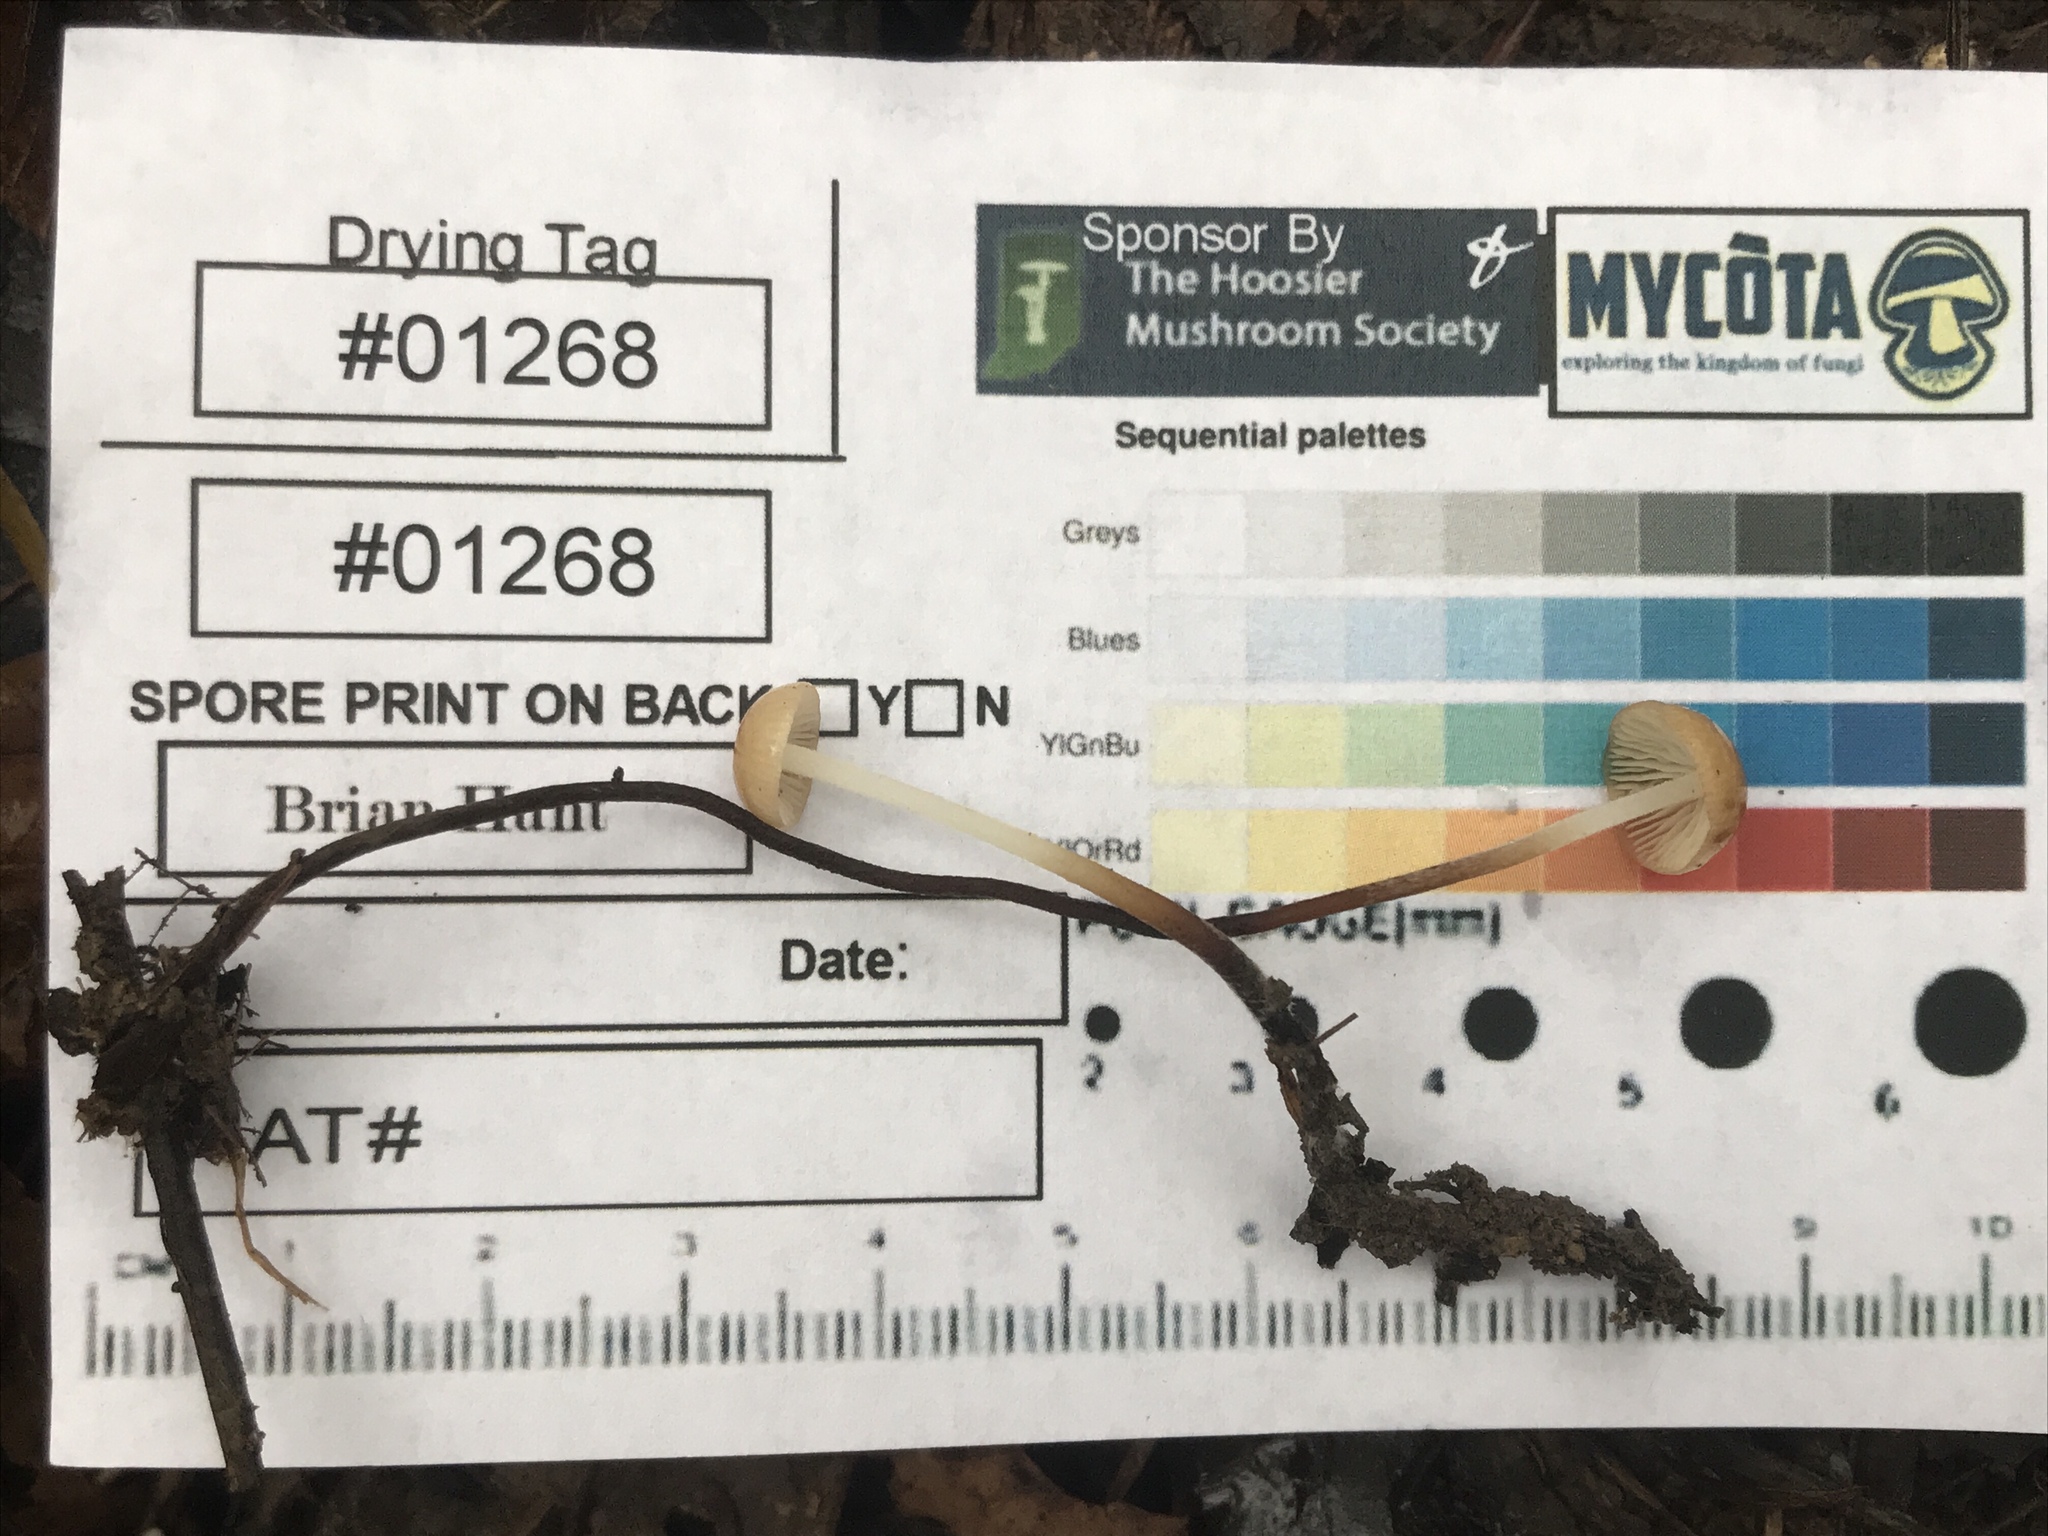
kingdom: Fungi
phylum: Basidiomycota
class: Agaricomycetes
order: Agaricales
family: Physalacriaceae
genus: Rhizomarasmius
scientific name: Rhizomarasmius pyrrhocephalus
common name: Hairy long stem marasmius
